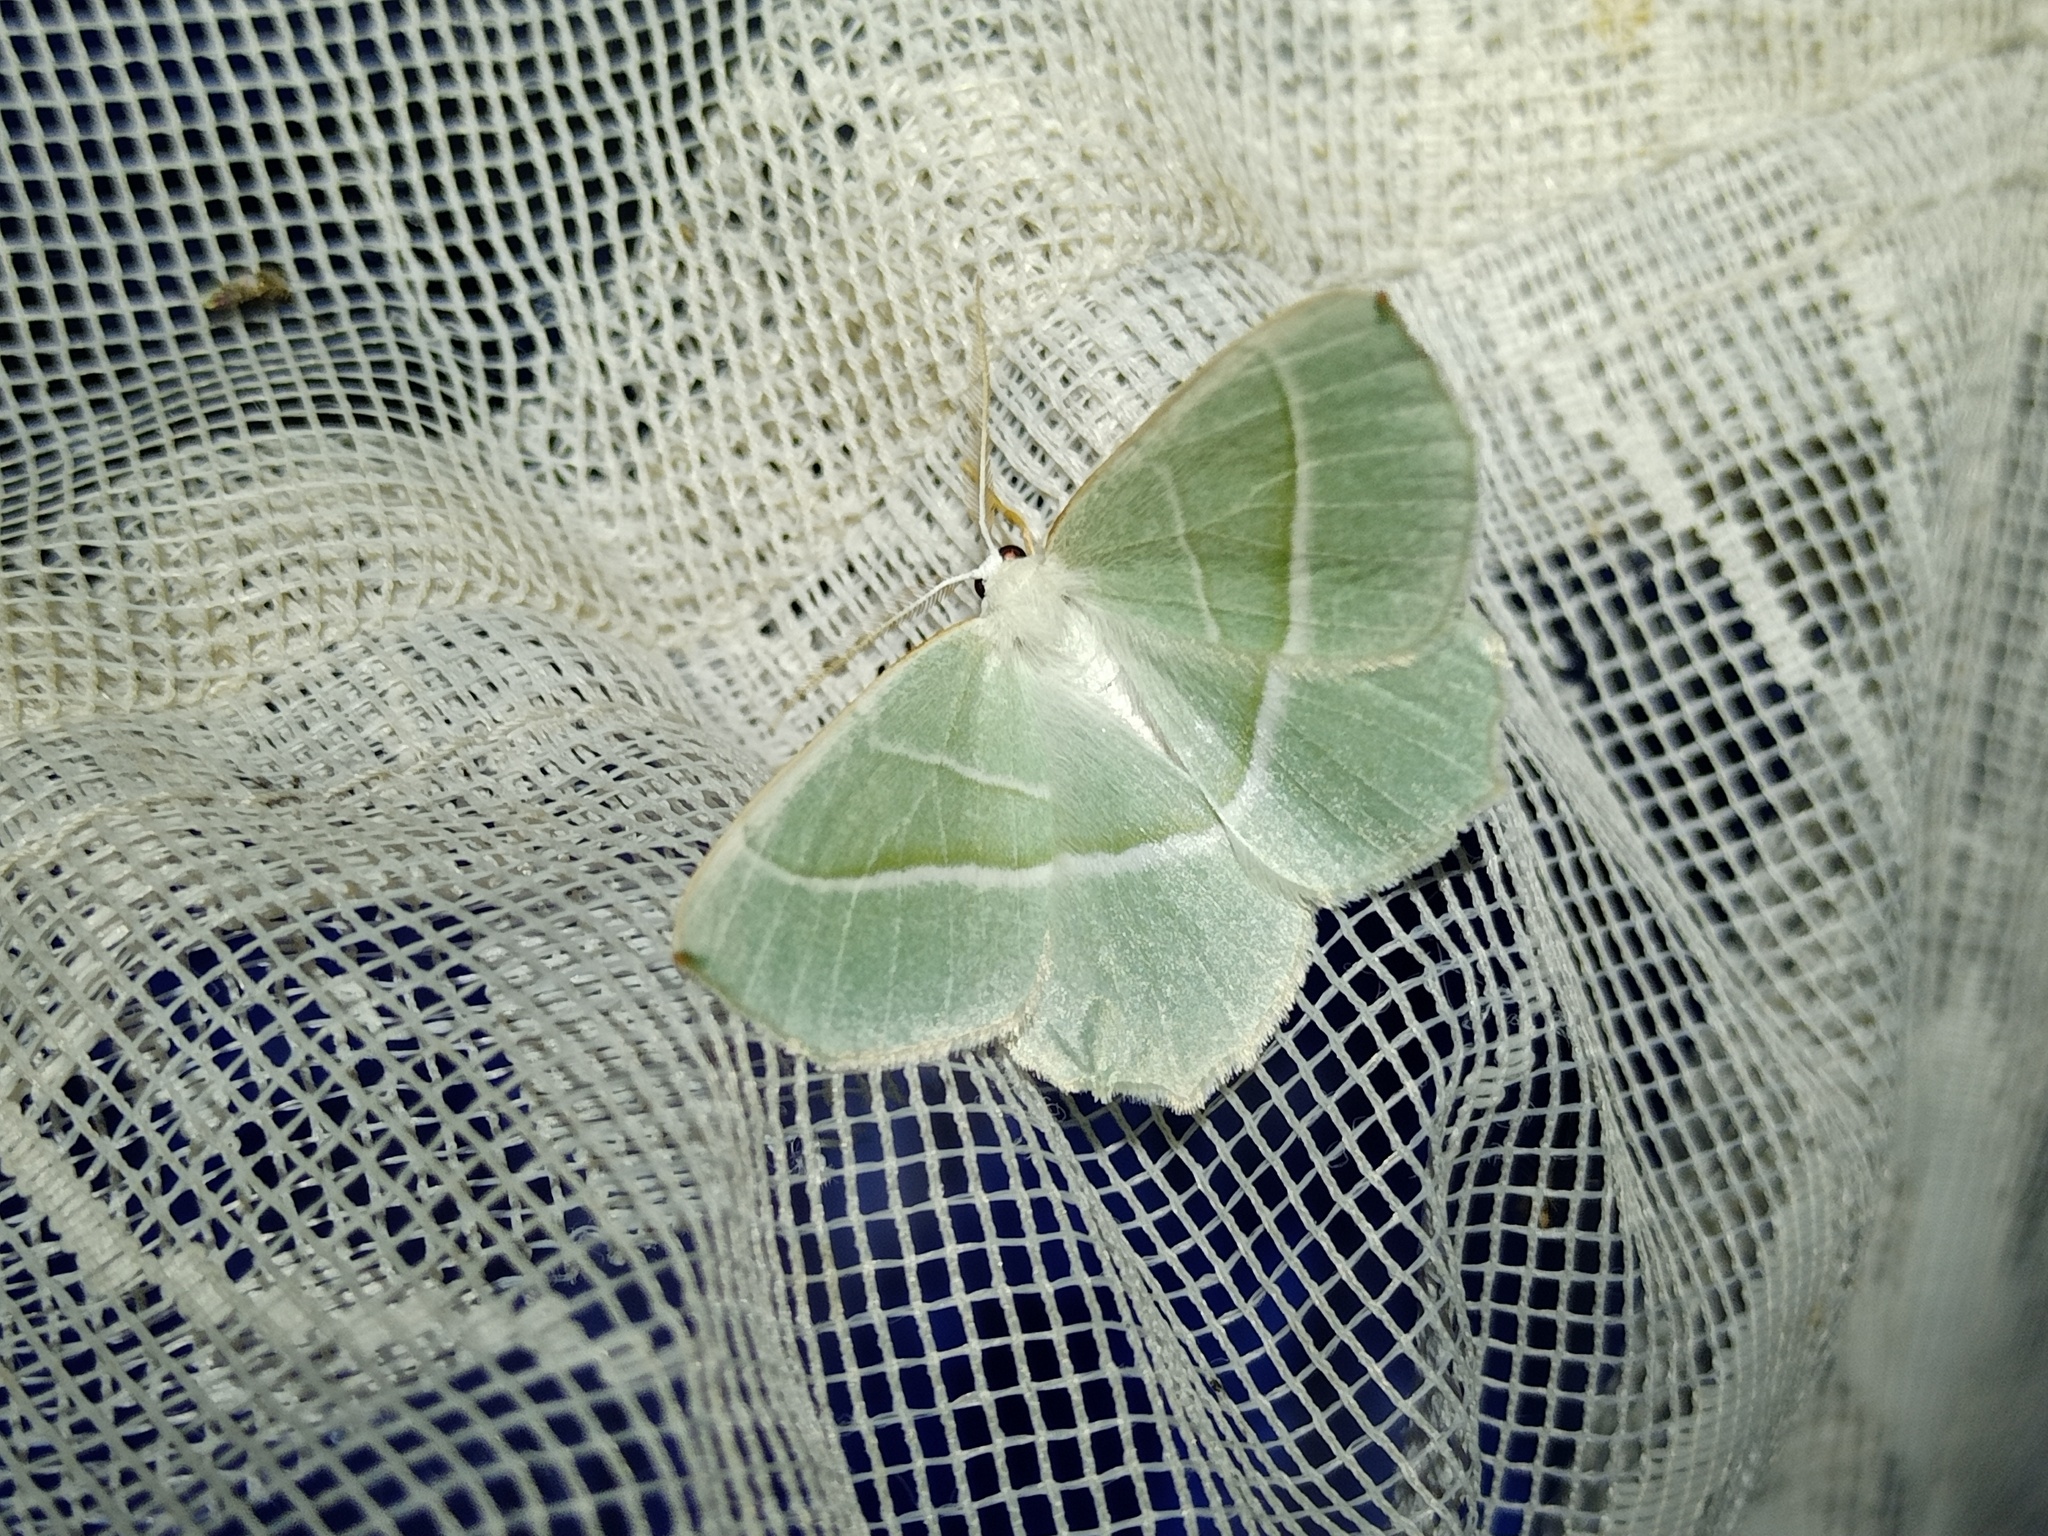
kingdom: Animalia
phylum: Arthropoda
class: Insecta
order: Lepidoptera
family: Geometridae
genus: Campaea
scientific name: Campaea margaritaria
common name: Light emerald
